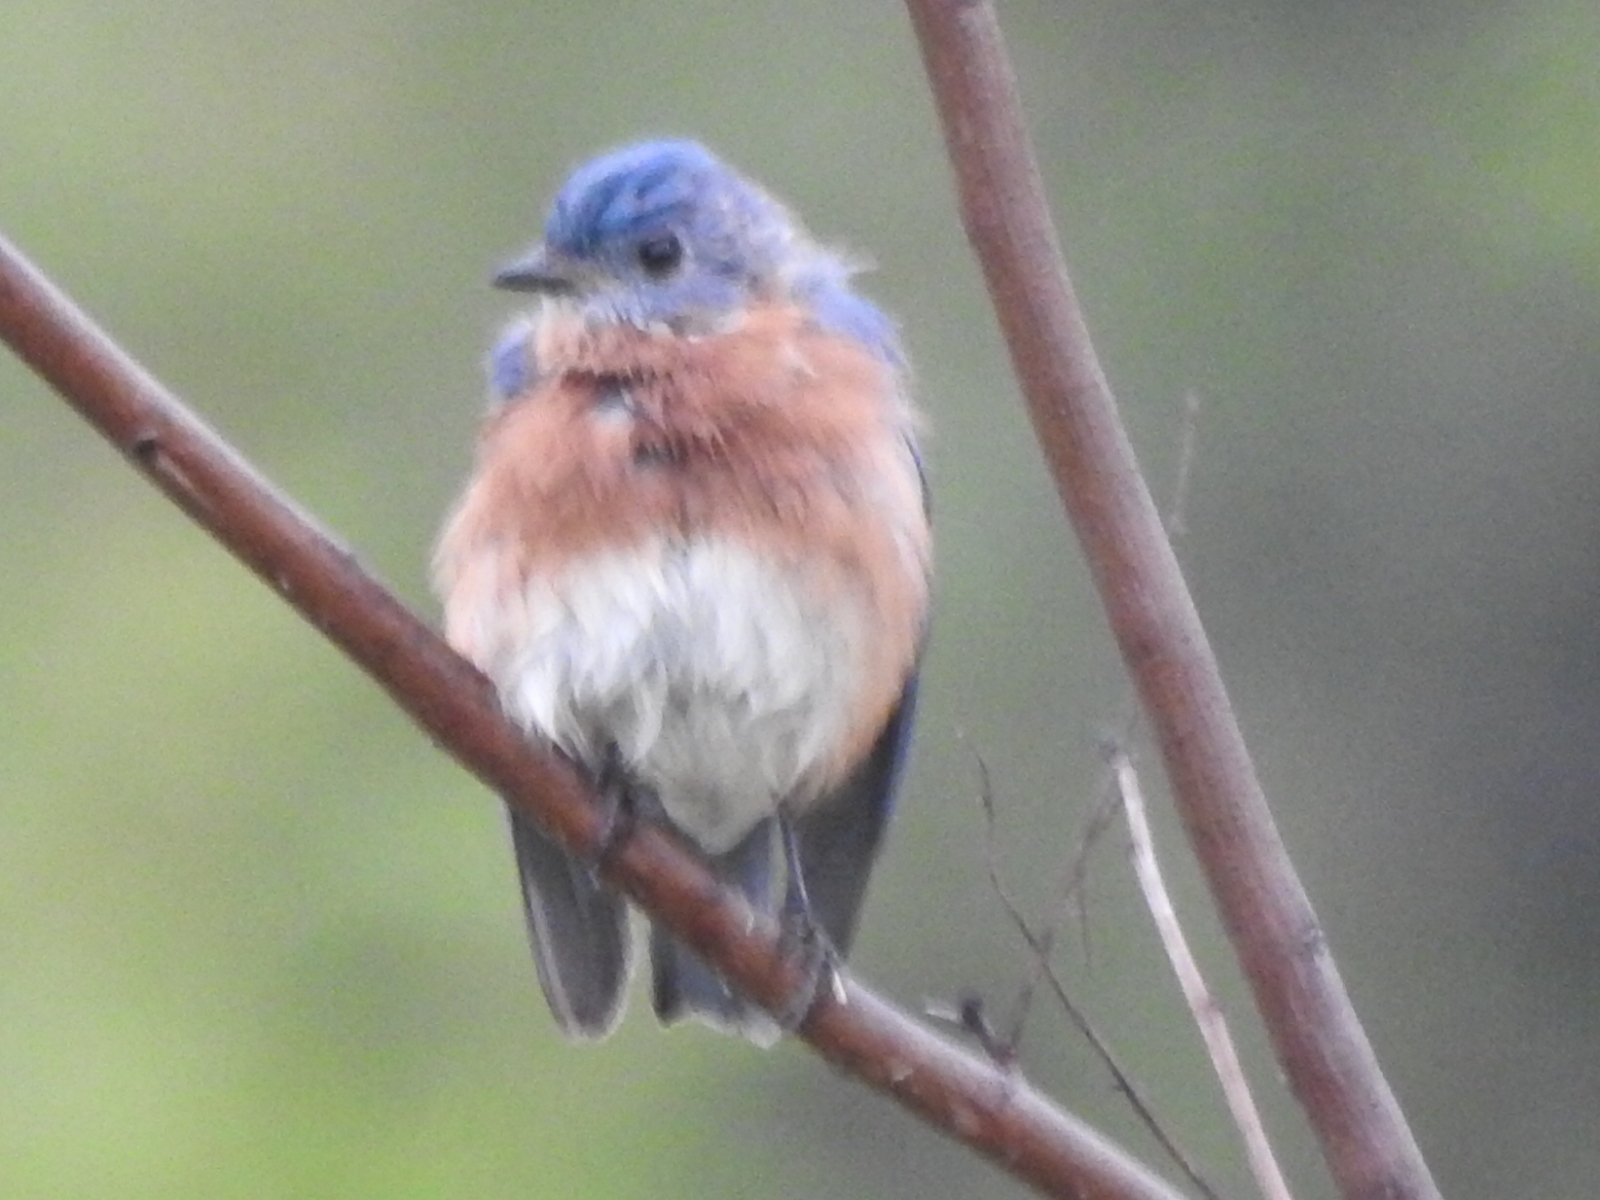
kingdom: Animalia
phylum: Chordata
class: Aves
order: Passeriformes
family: Turdidae
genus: Sialia
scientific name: Sialia sialis
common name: Eastern bluebird
